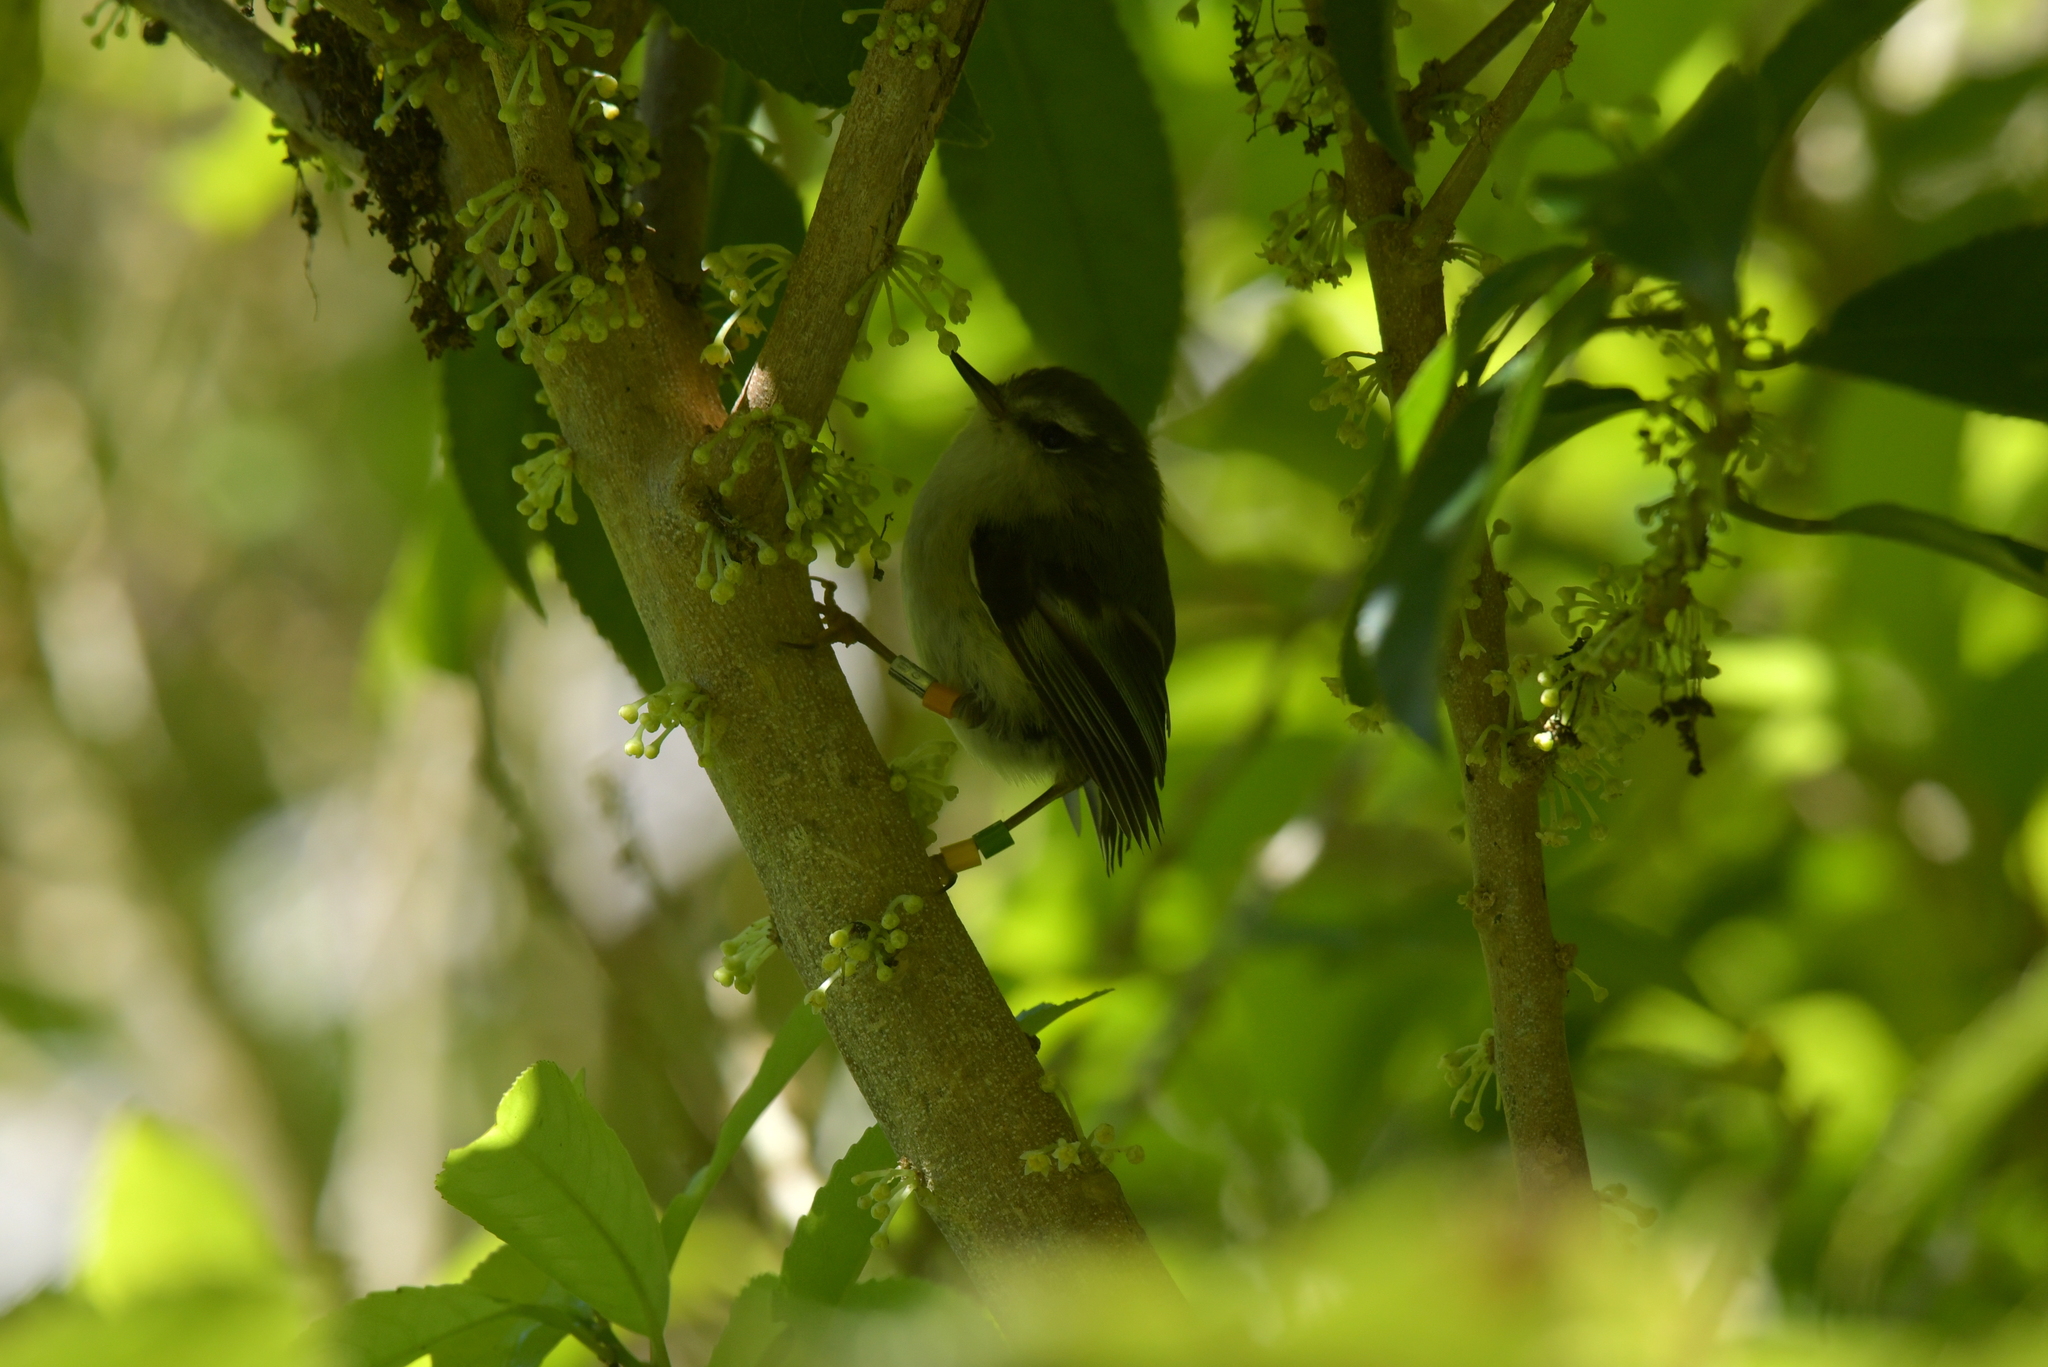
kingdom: Animalia
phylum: Chordata
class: Aves
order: Passeriformes
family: Acanthisittidae
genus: Acanthisitta
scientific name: Acanthisitta chloris
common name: Rifleman
